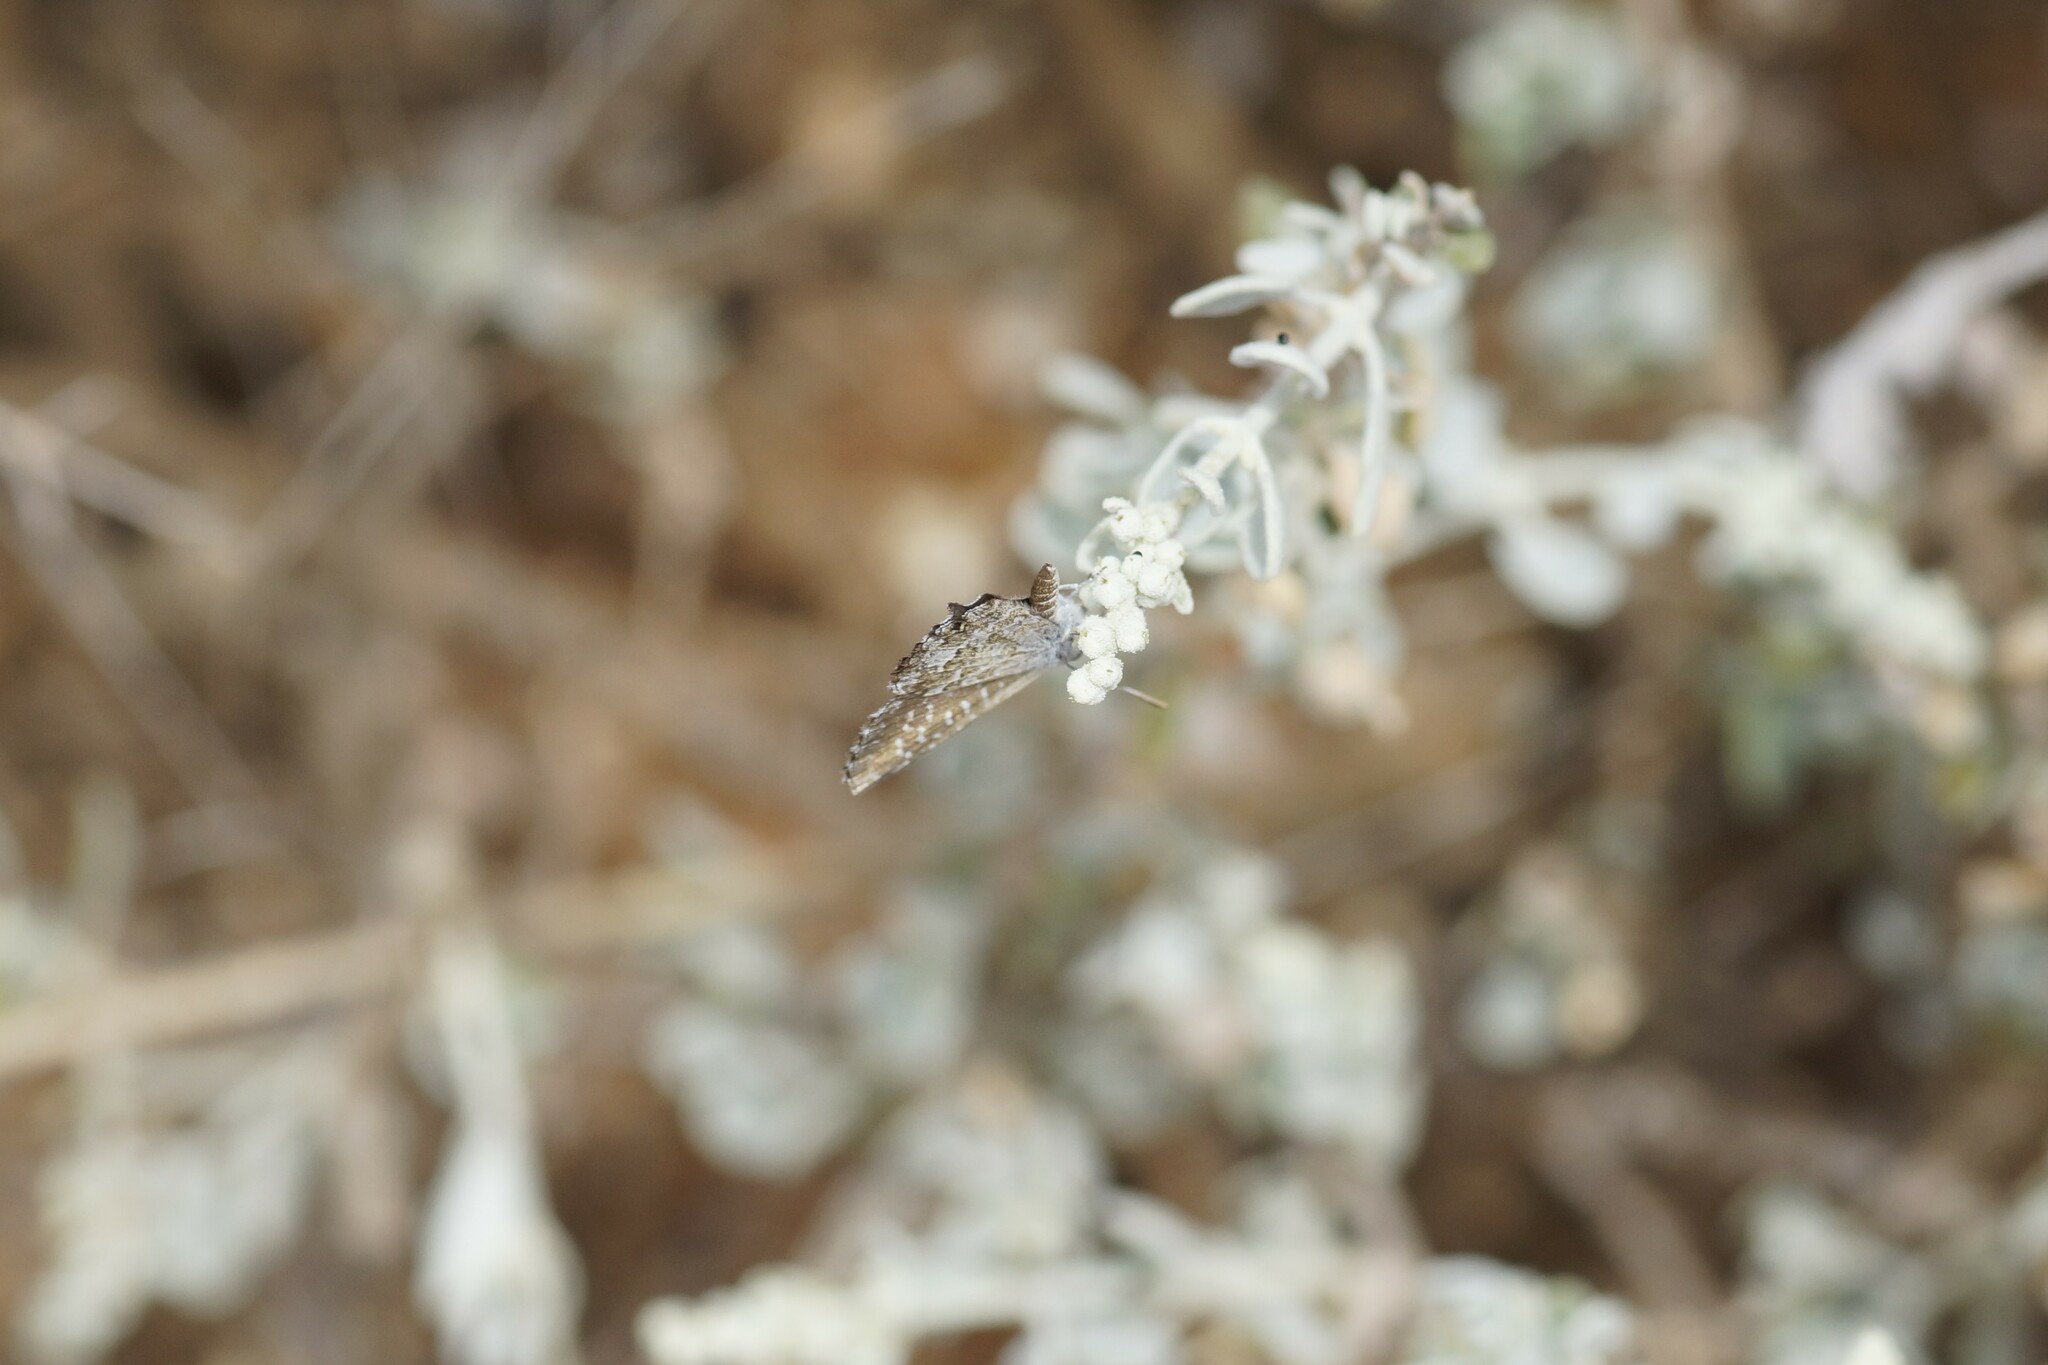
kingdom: Animalia
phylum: Arthropoda
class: Insecta
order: Lepidoptera
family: Lycaenidae
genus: Theclinesthes
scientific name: Theclinesthes serpentata
